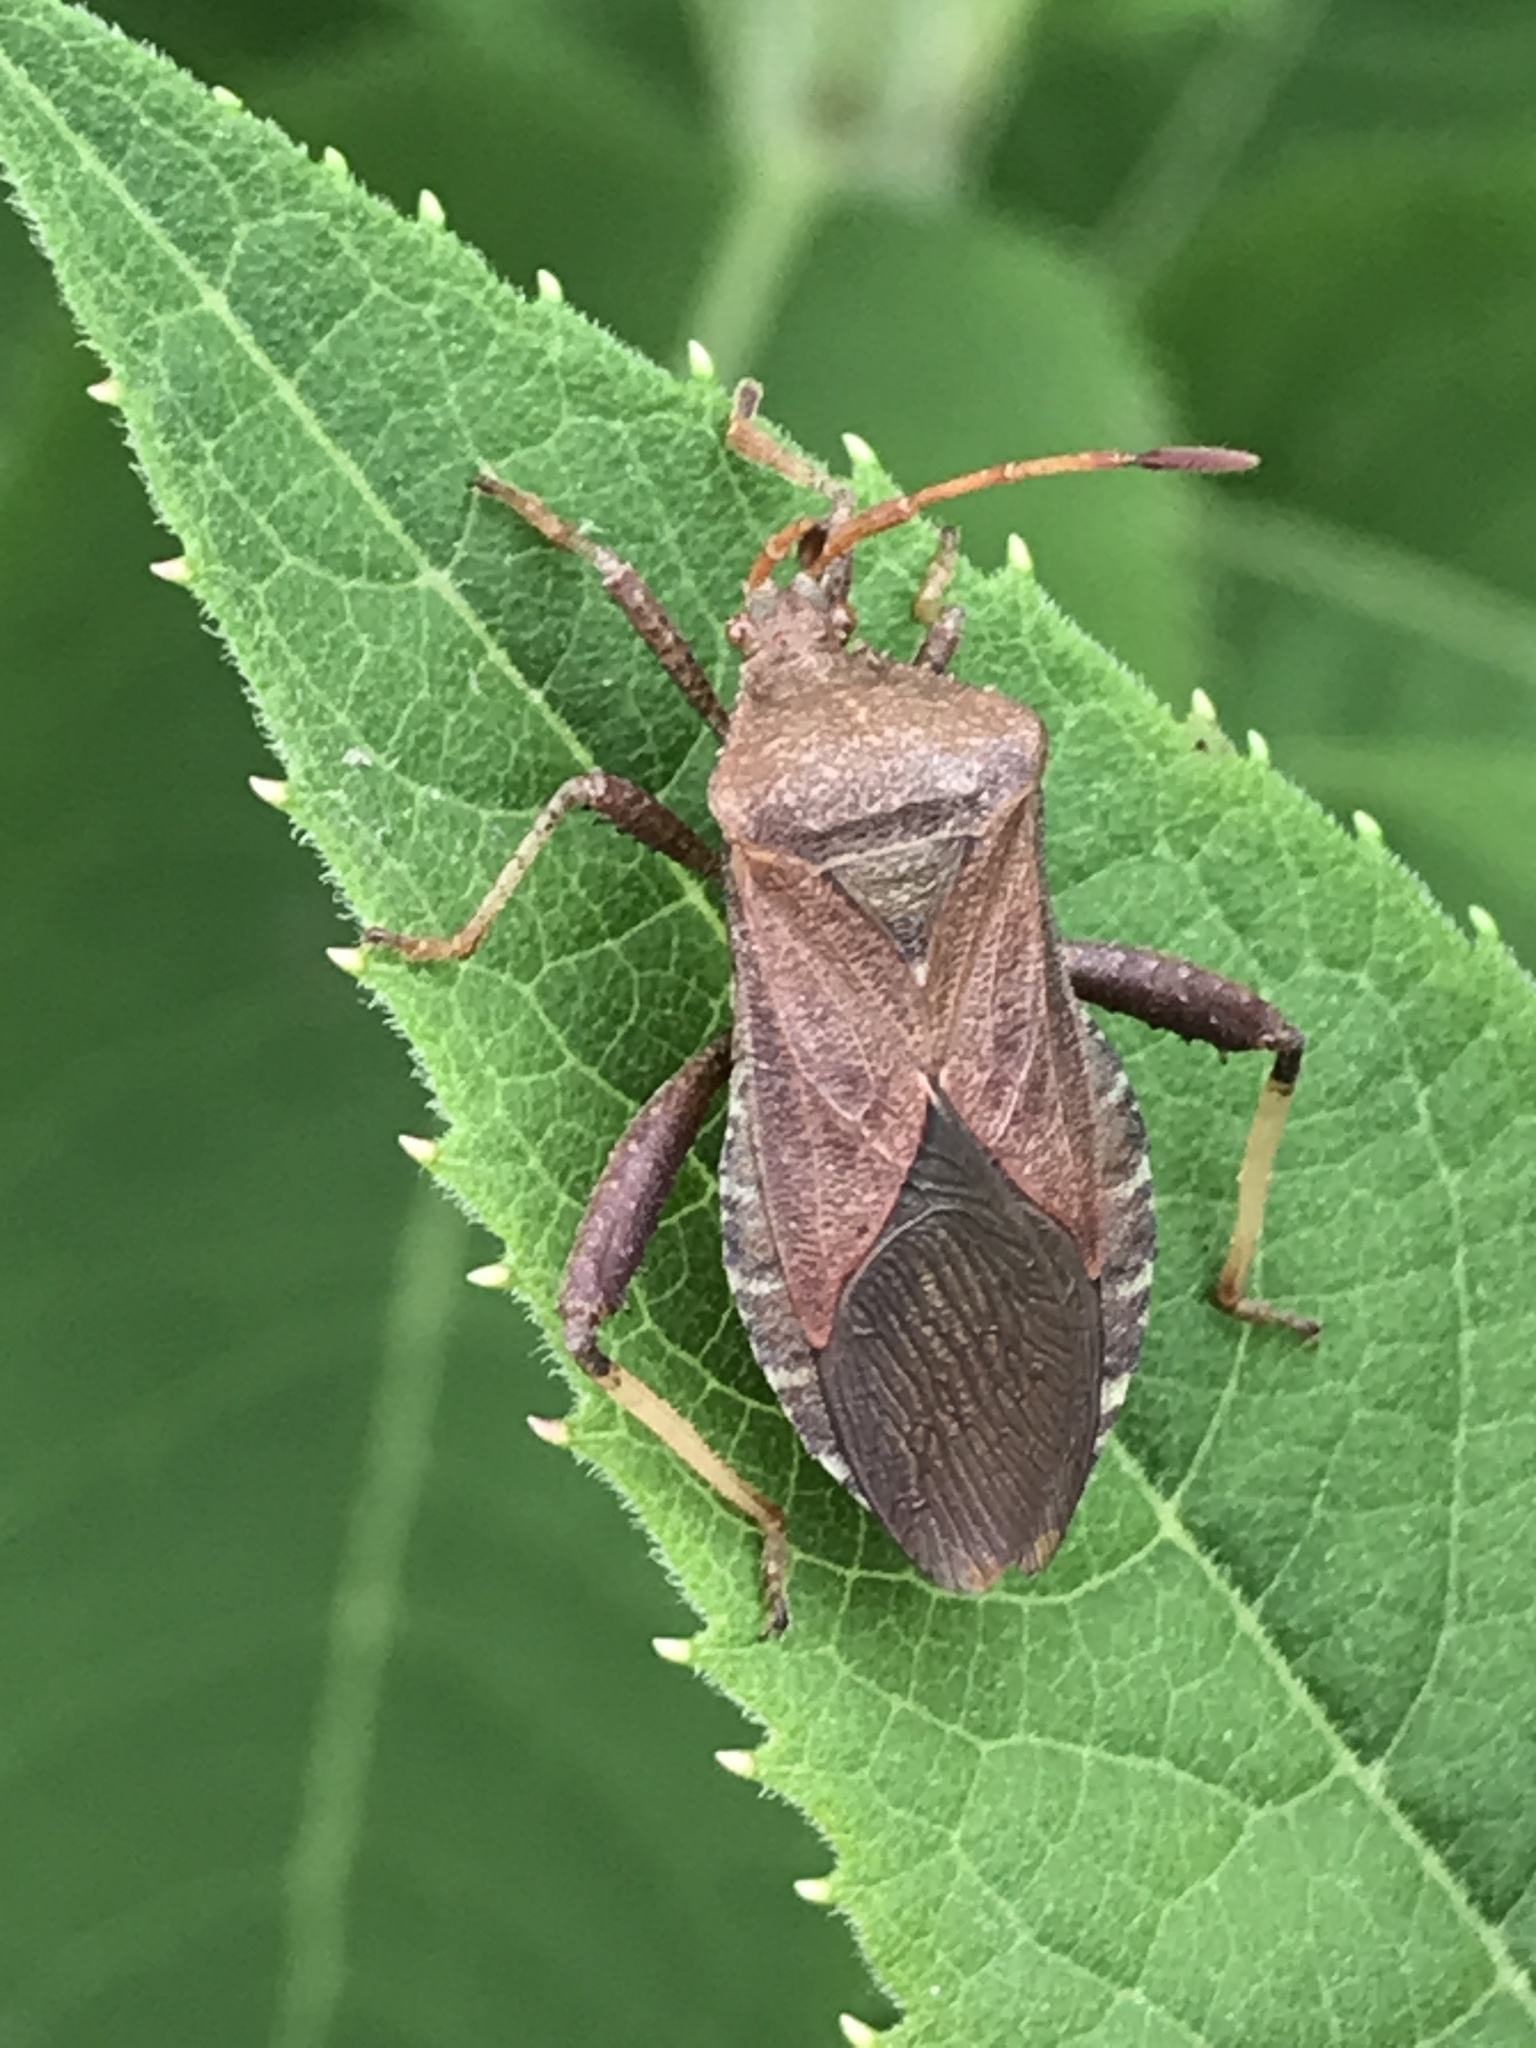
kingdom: Animalia
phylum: Arthropoda
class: Insecta
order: Hemiptera
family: Coreidae
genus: Euthochtha
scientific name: Euthochtha galeator
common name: Helmeted squash bug
